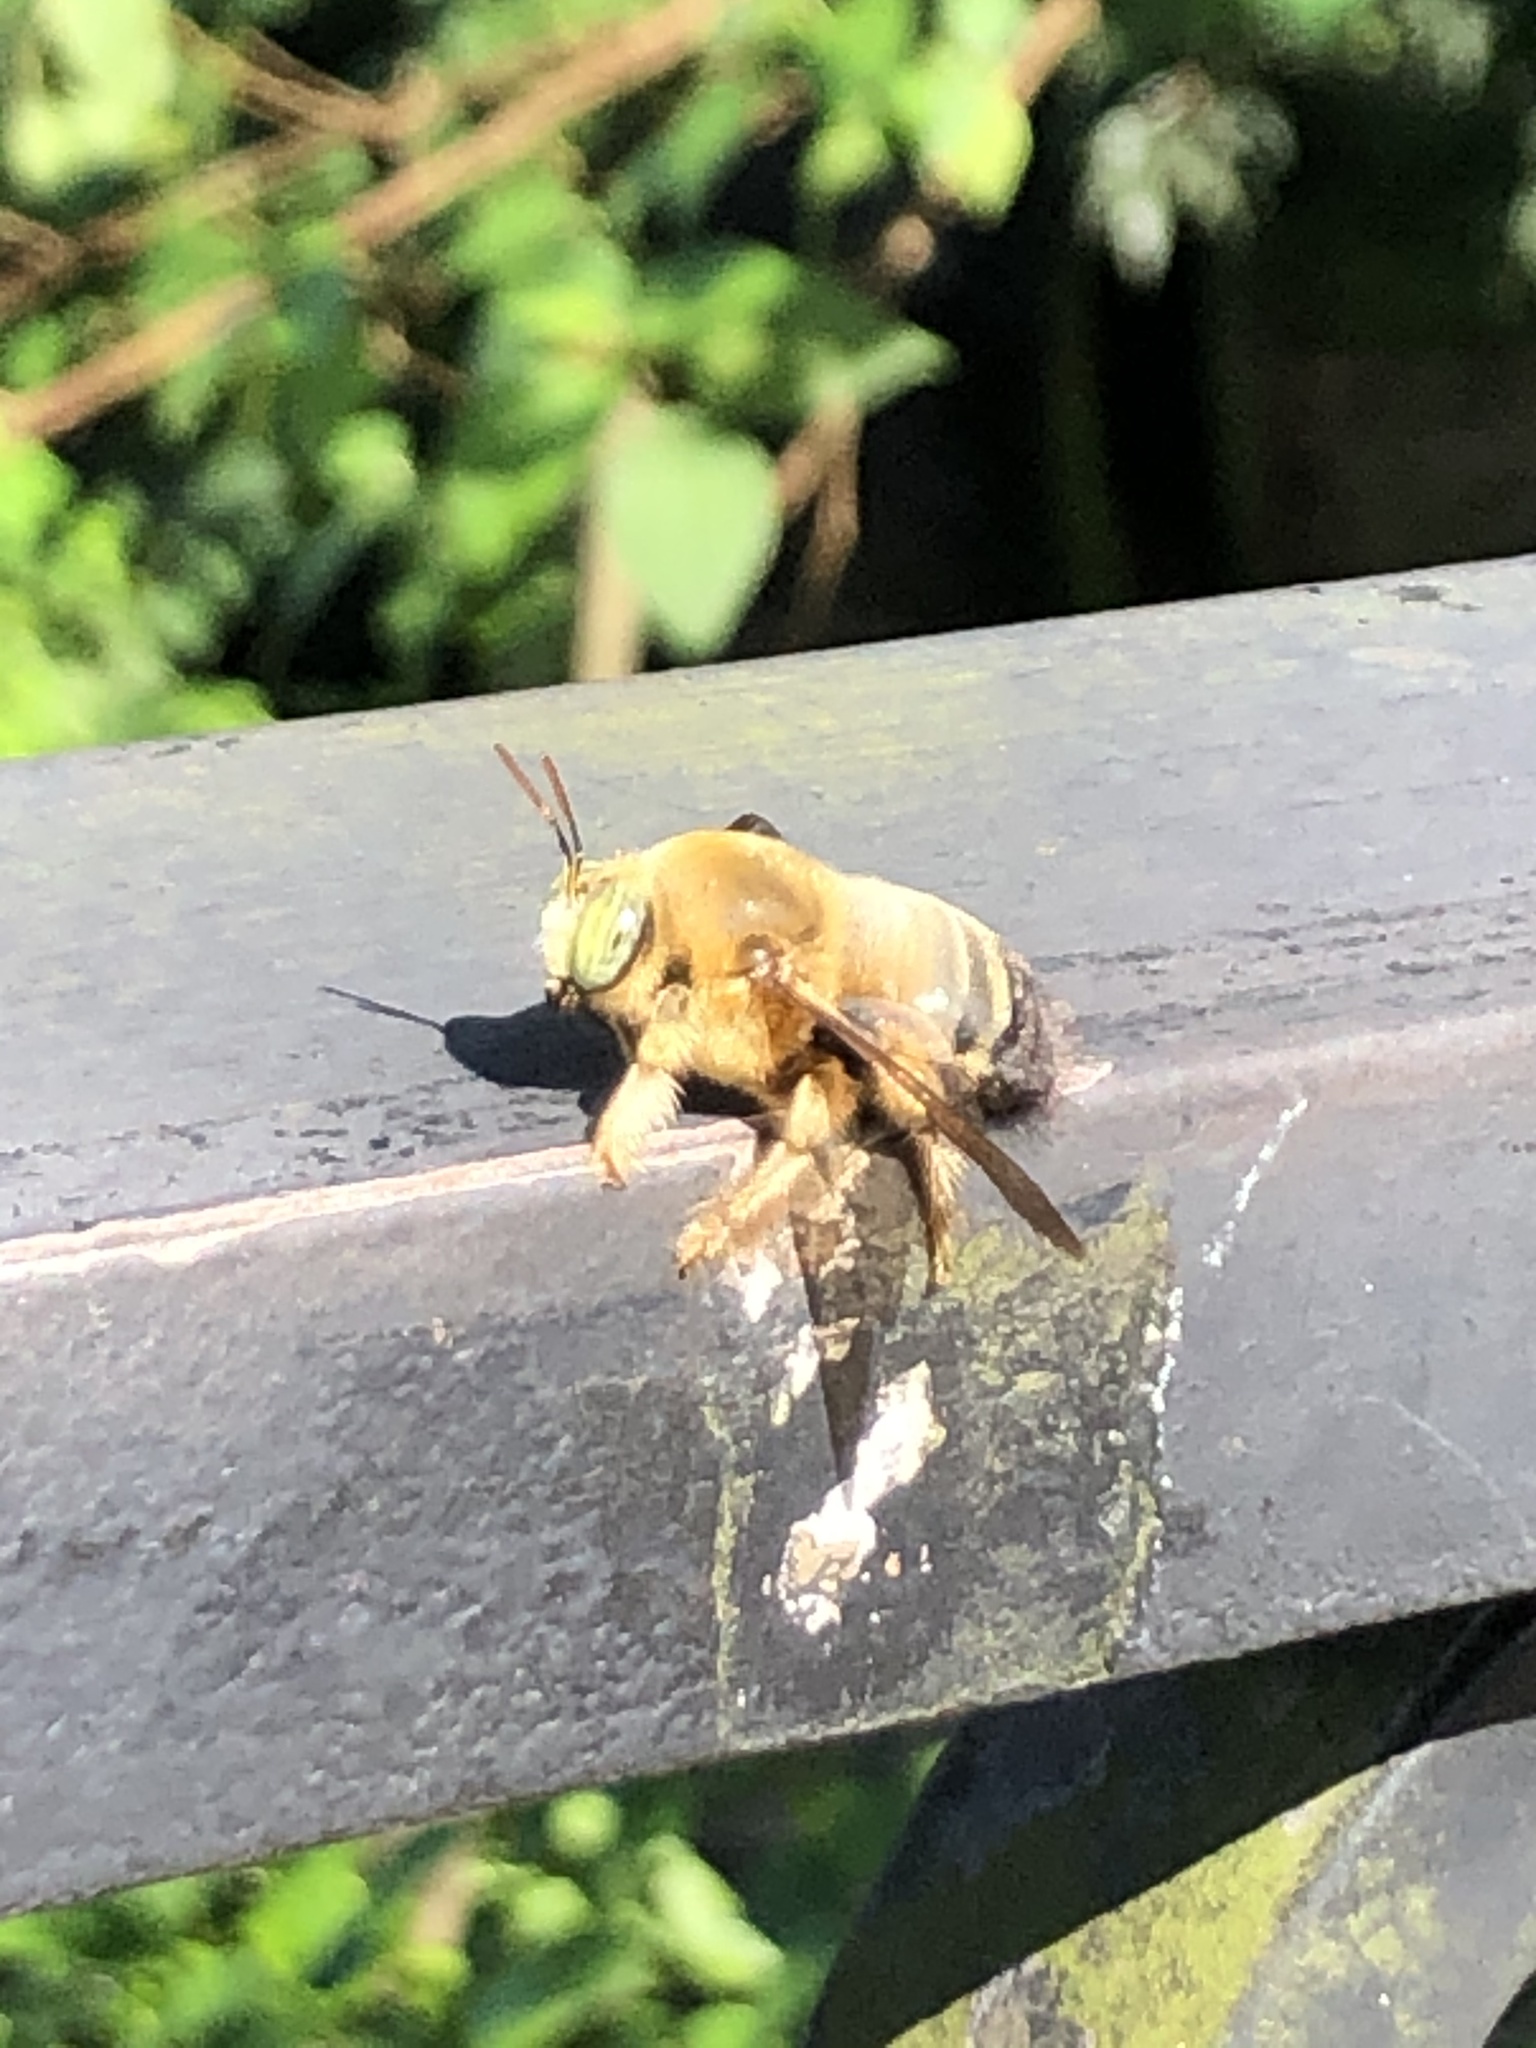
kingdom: Animalia
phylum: Arthropoda
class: Insecta
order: Hymenoptera
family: Apidae
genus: Xylocopa
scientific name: Xylocopa dejeanii
